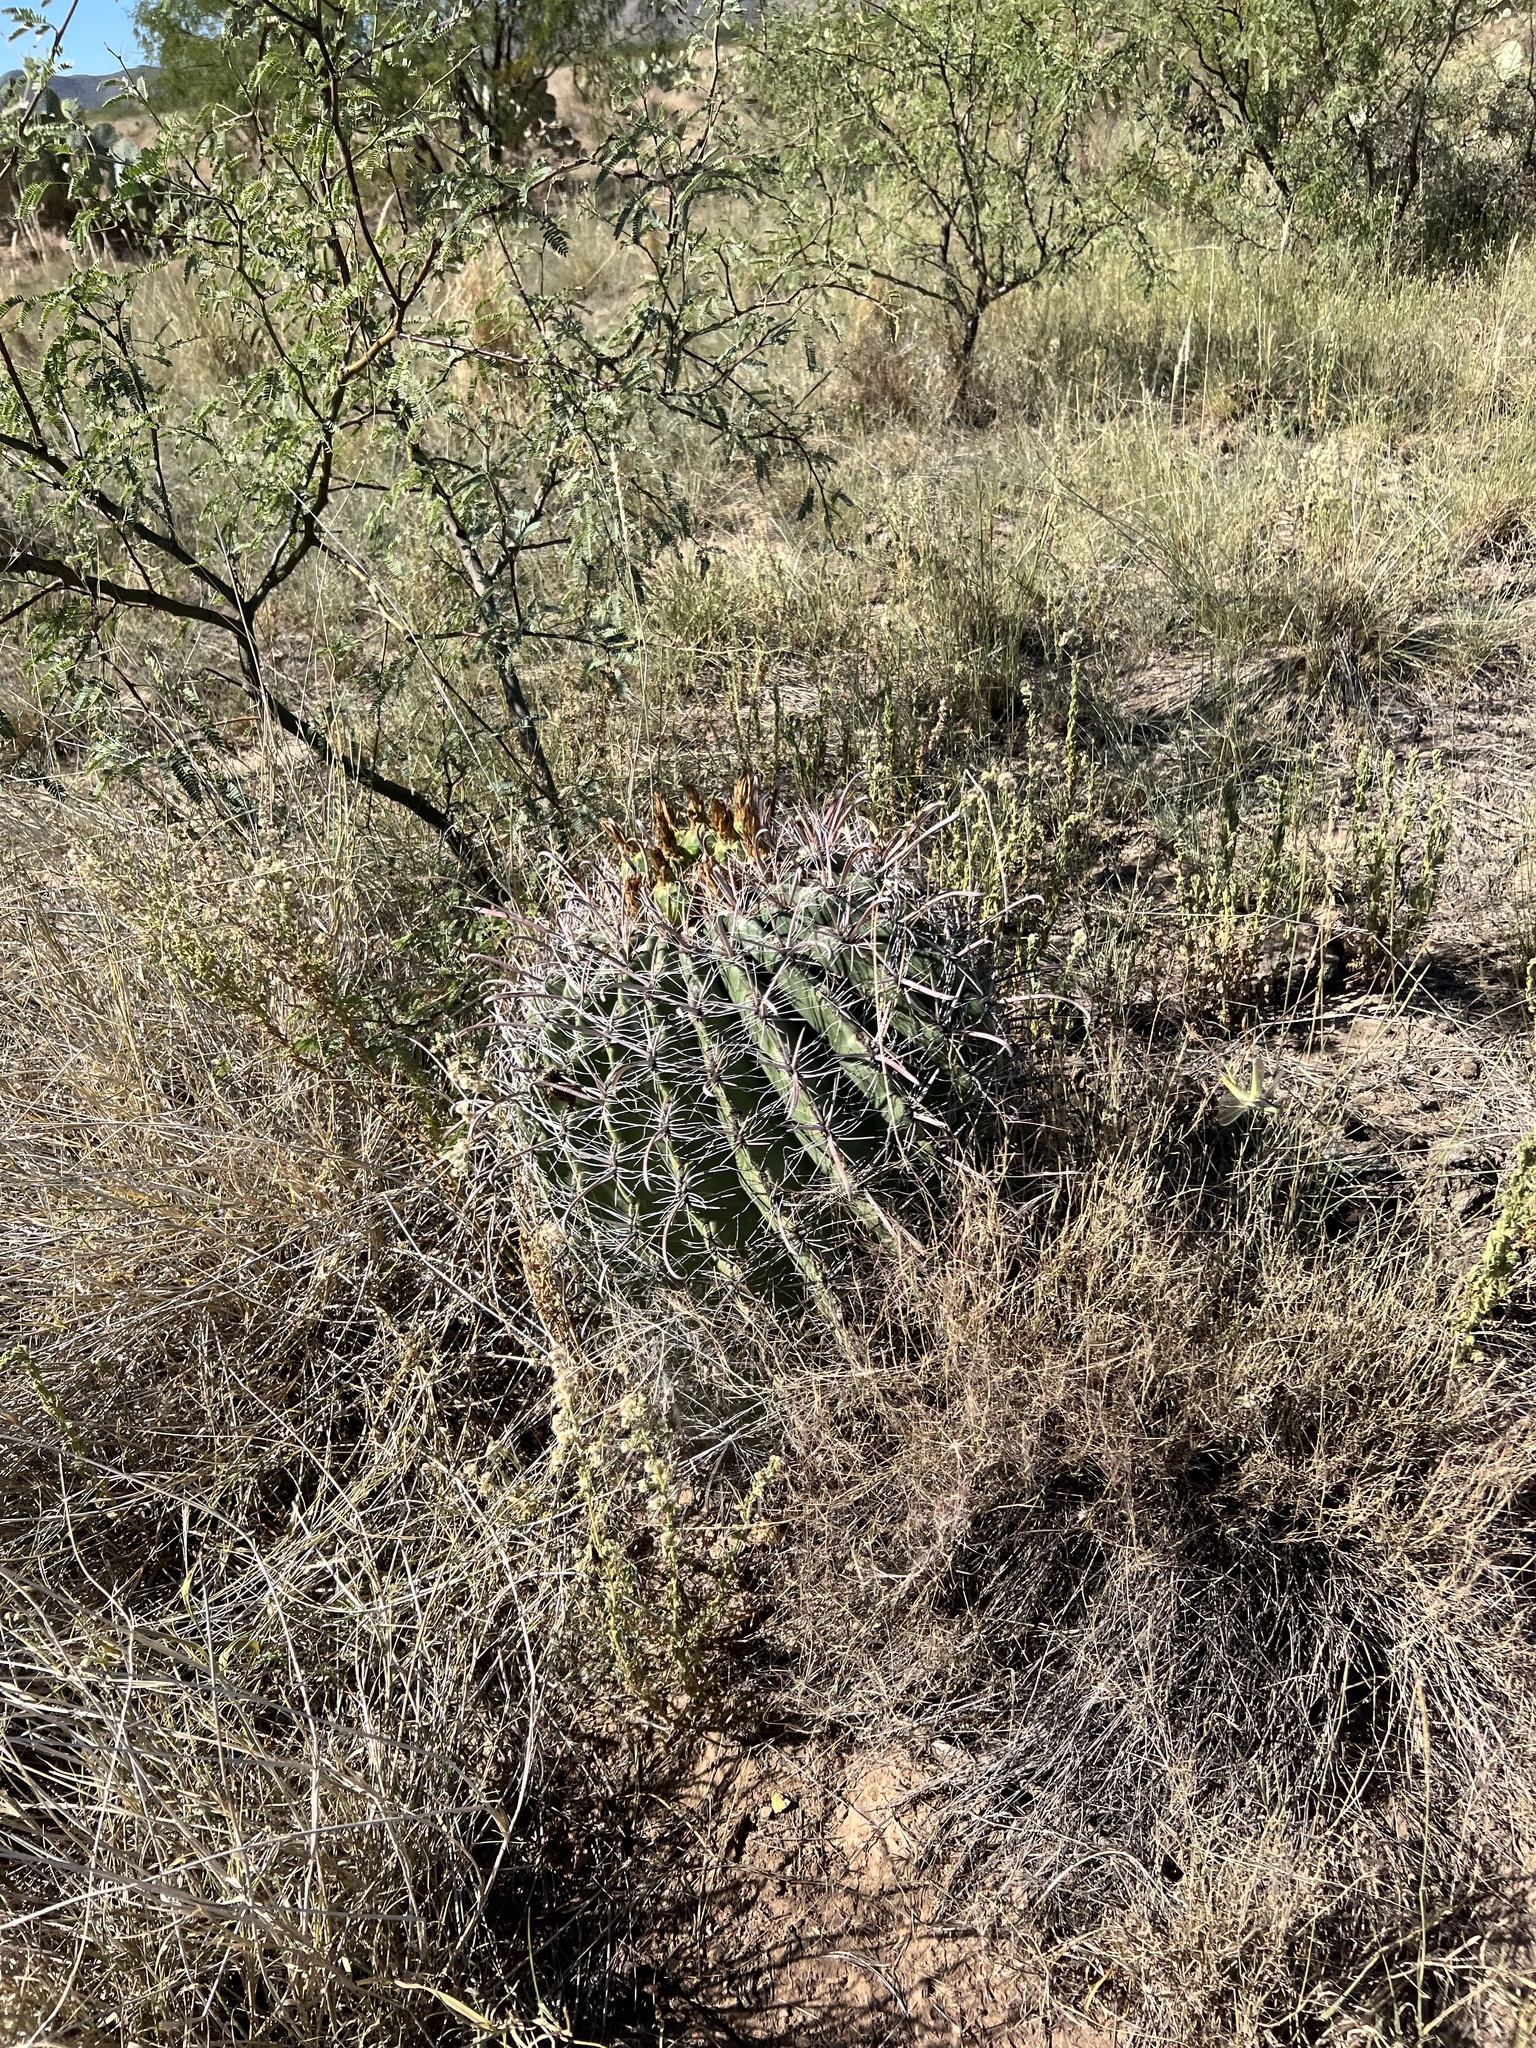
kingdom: Plantae
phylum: Tracheophyta
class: Magnoliopsida
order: Caryophyllales
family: Cactaceae
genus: Ferocactus
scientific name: Ferocactus wislizeni
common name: Candy barrel cactus
